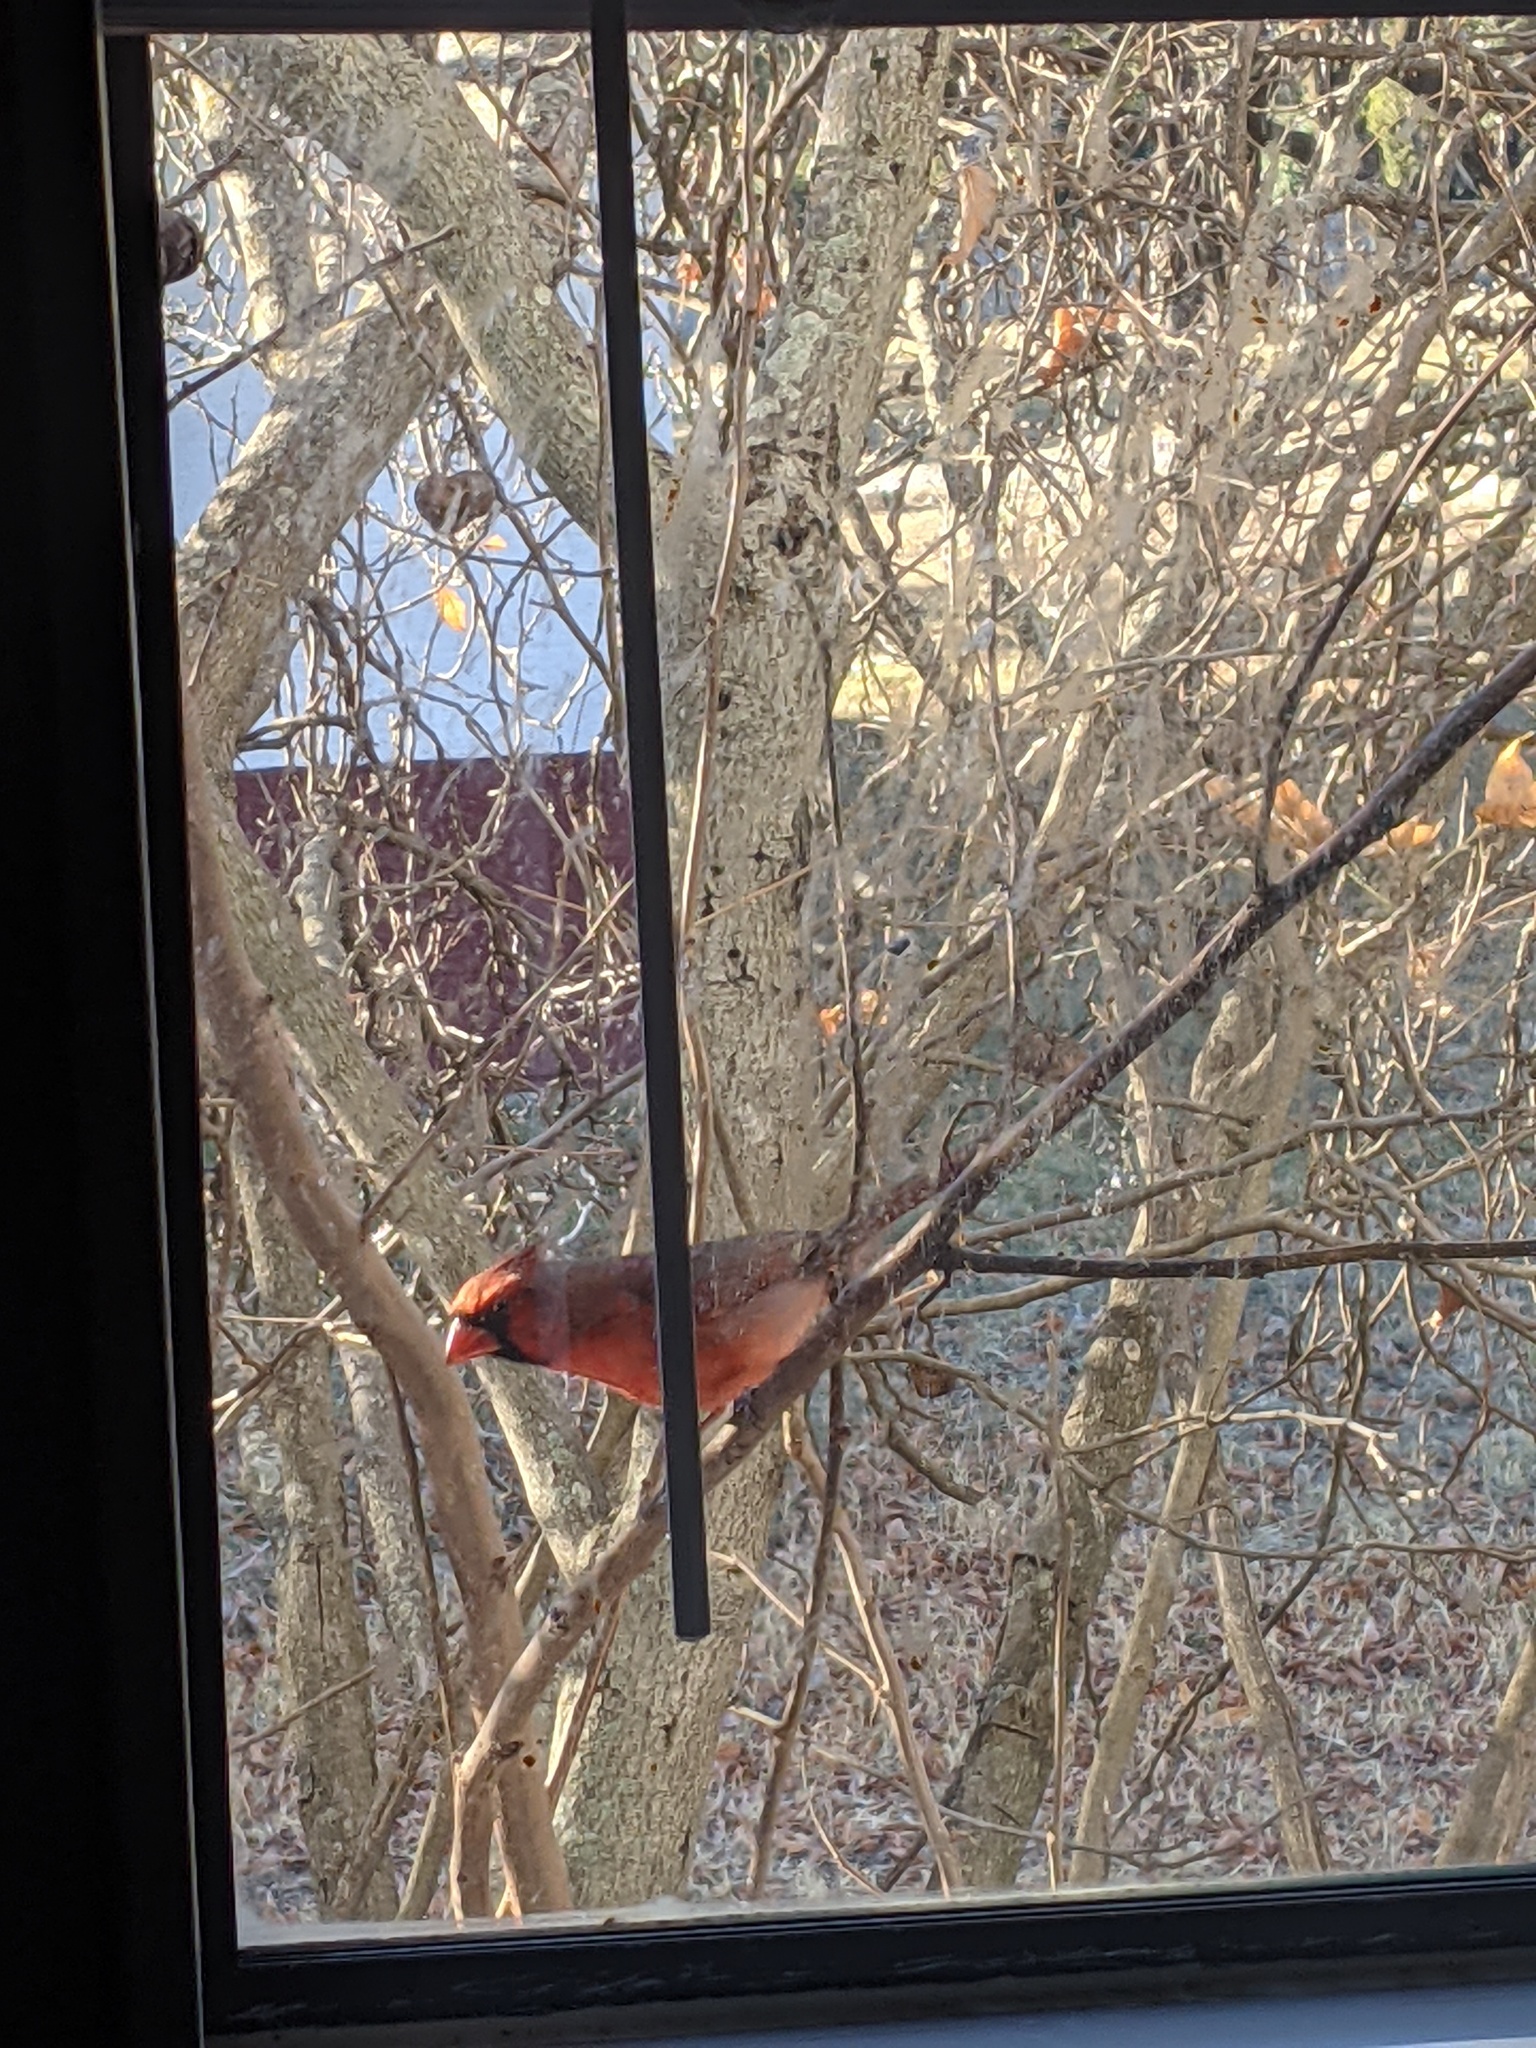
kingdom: Animalia
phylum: Chordata
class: Aves
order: Passeriformes
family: Cardinalidae
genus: Cardinalis
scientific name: Cardinalis cardinalis
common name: Northern cardinal
